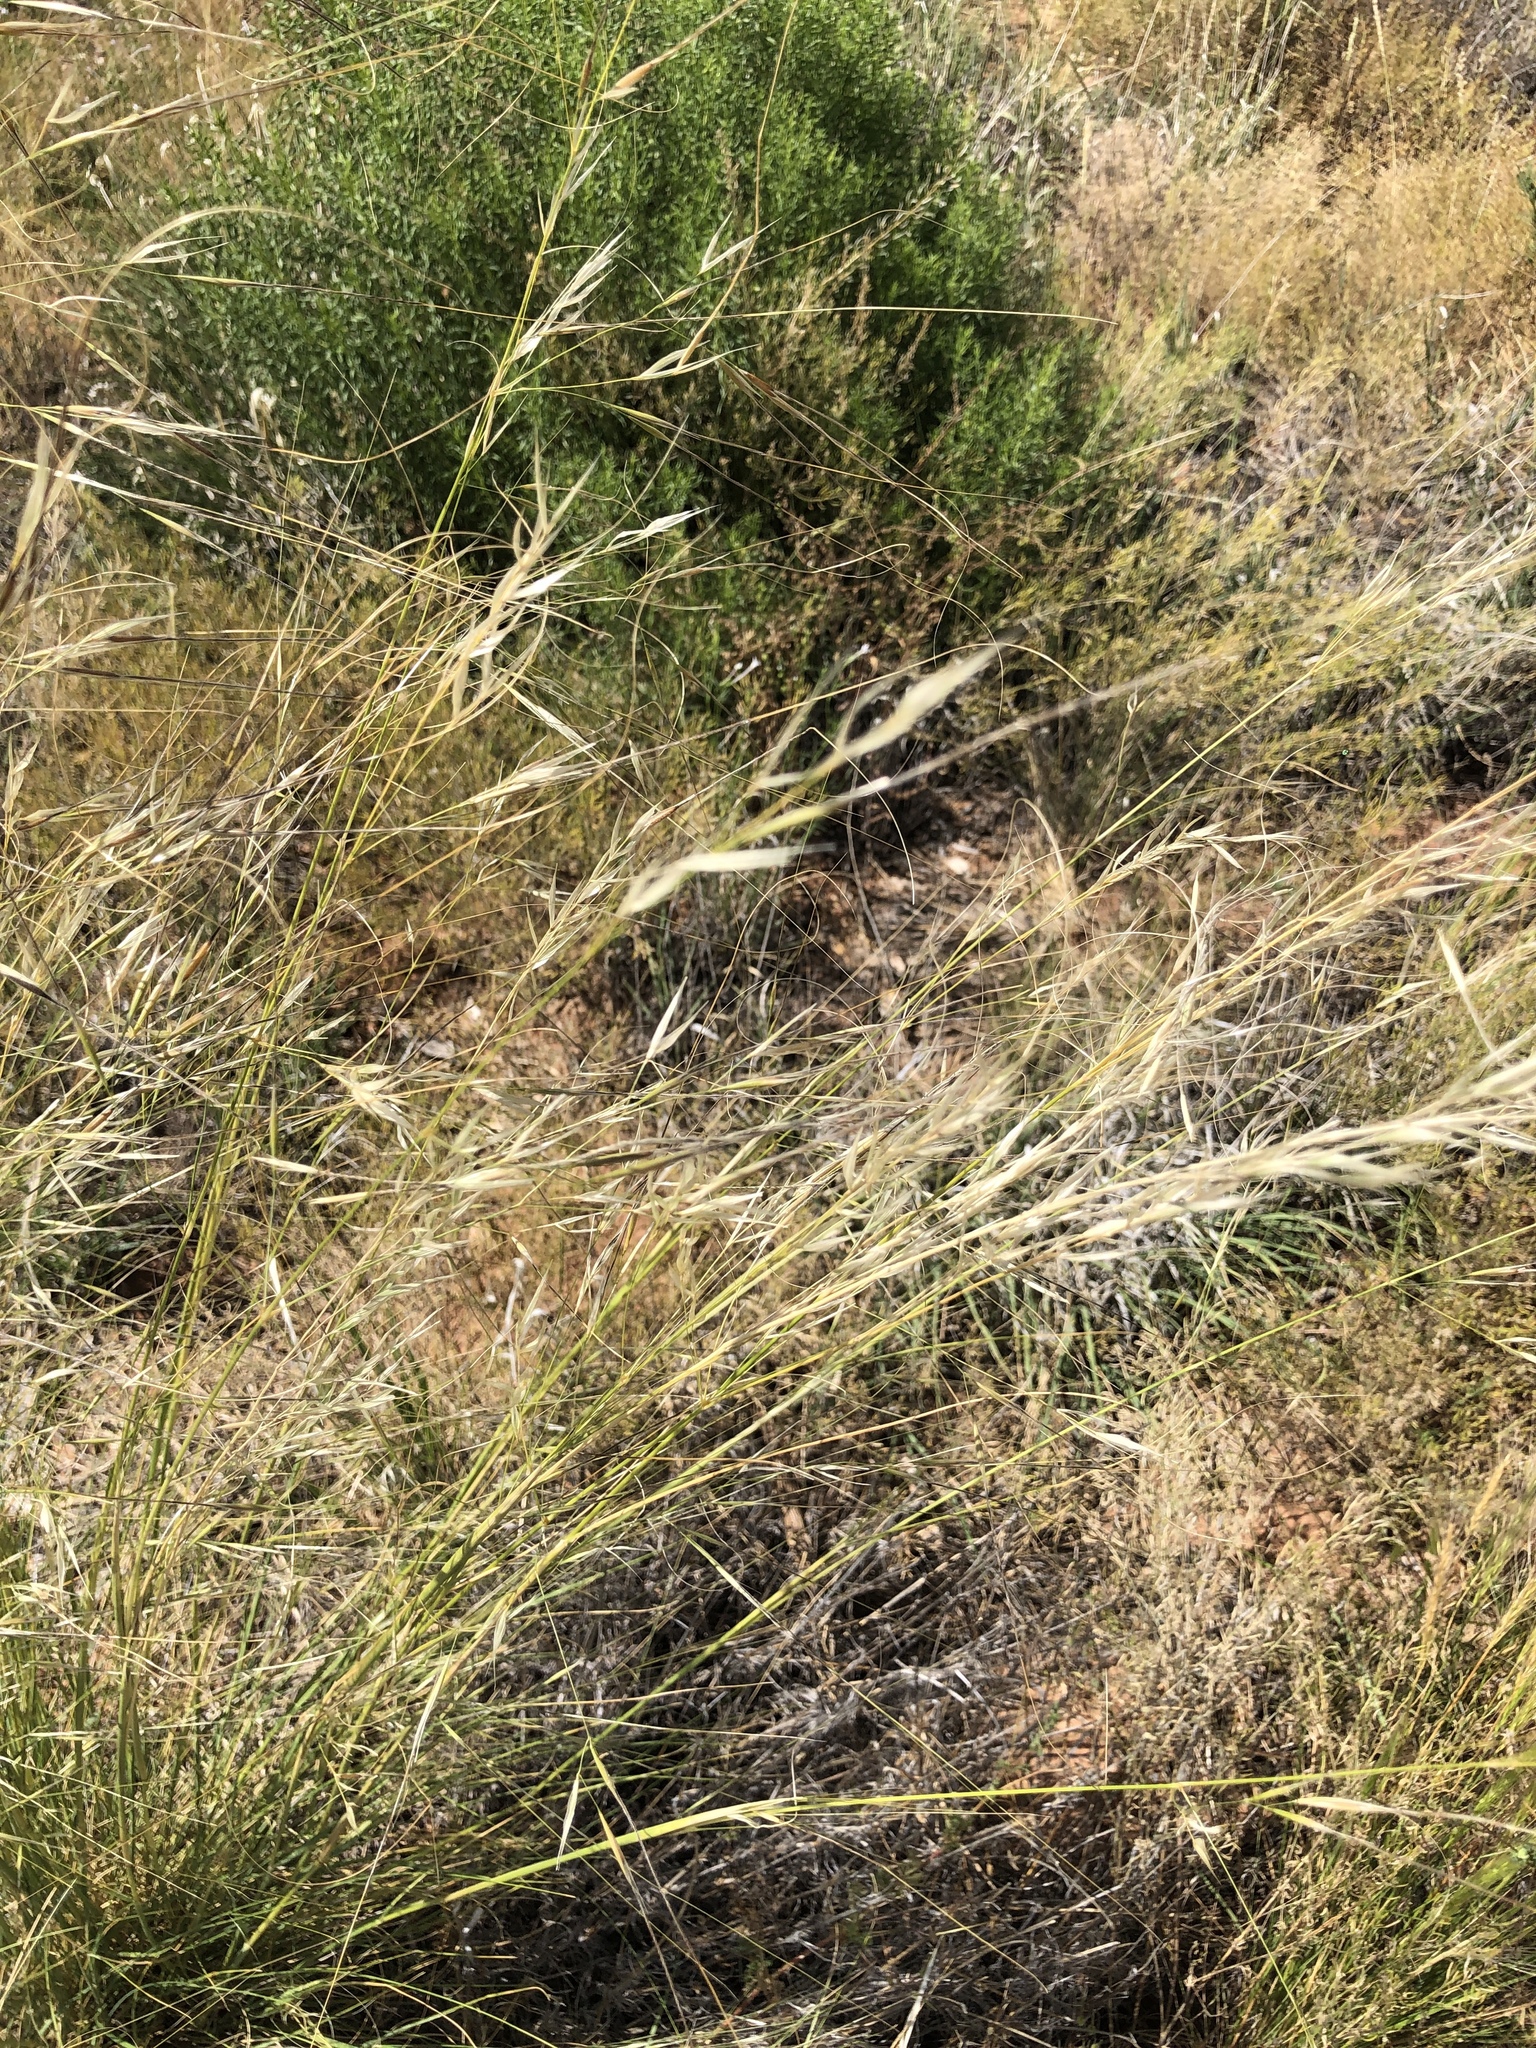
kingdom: Plantae
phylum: Tracheophyta
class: Liliopsida
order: Poales
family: Poaceae
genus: Hesperostipa
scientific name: Hesperostipa comata
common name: Needle-and-thread grass
